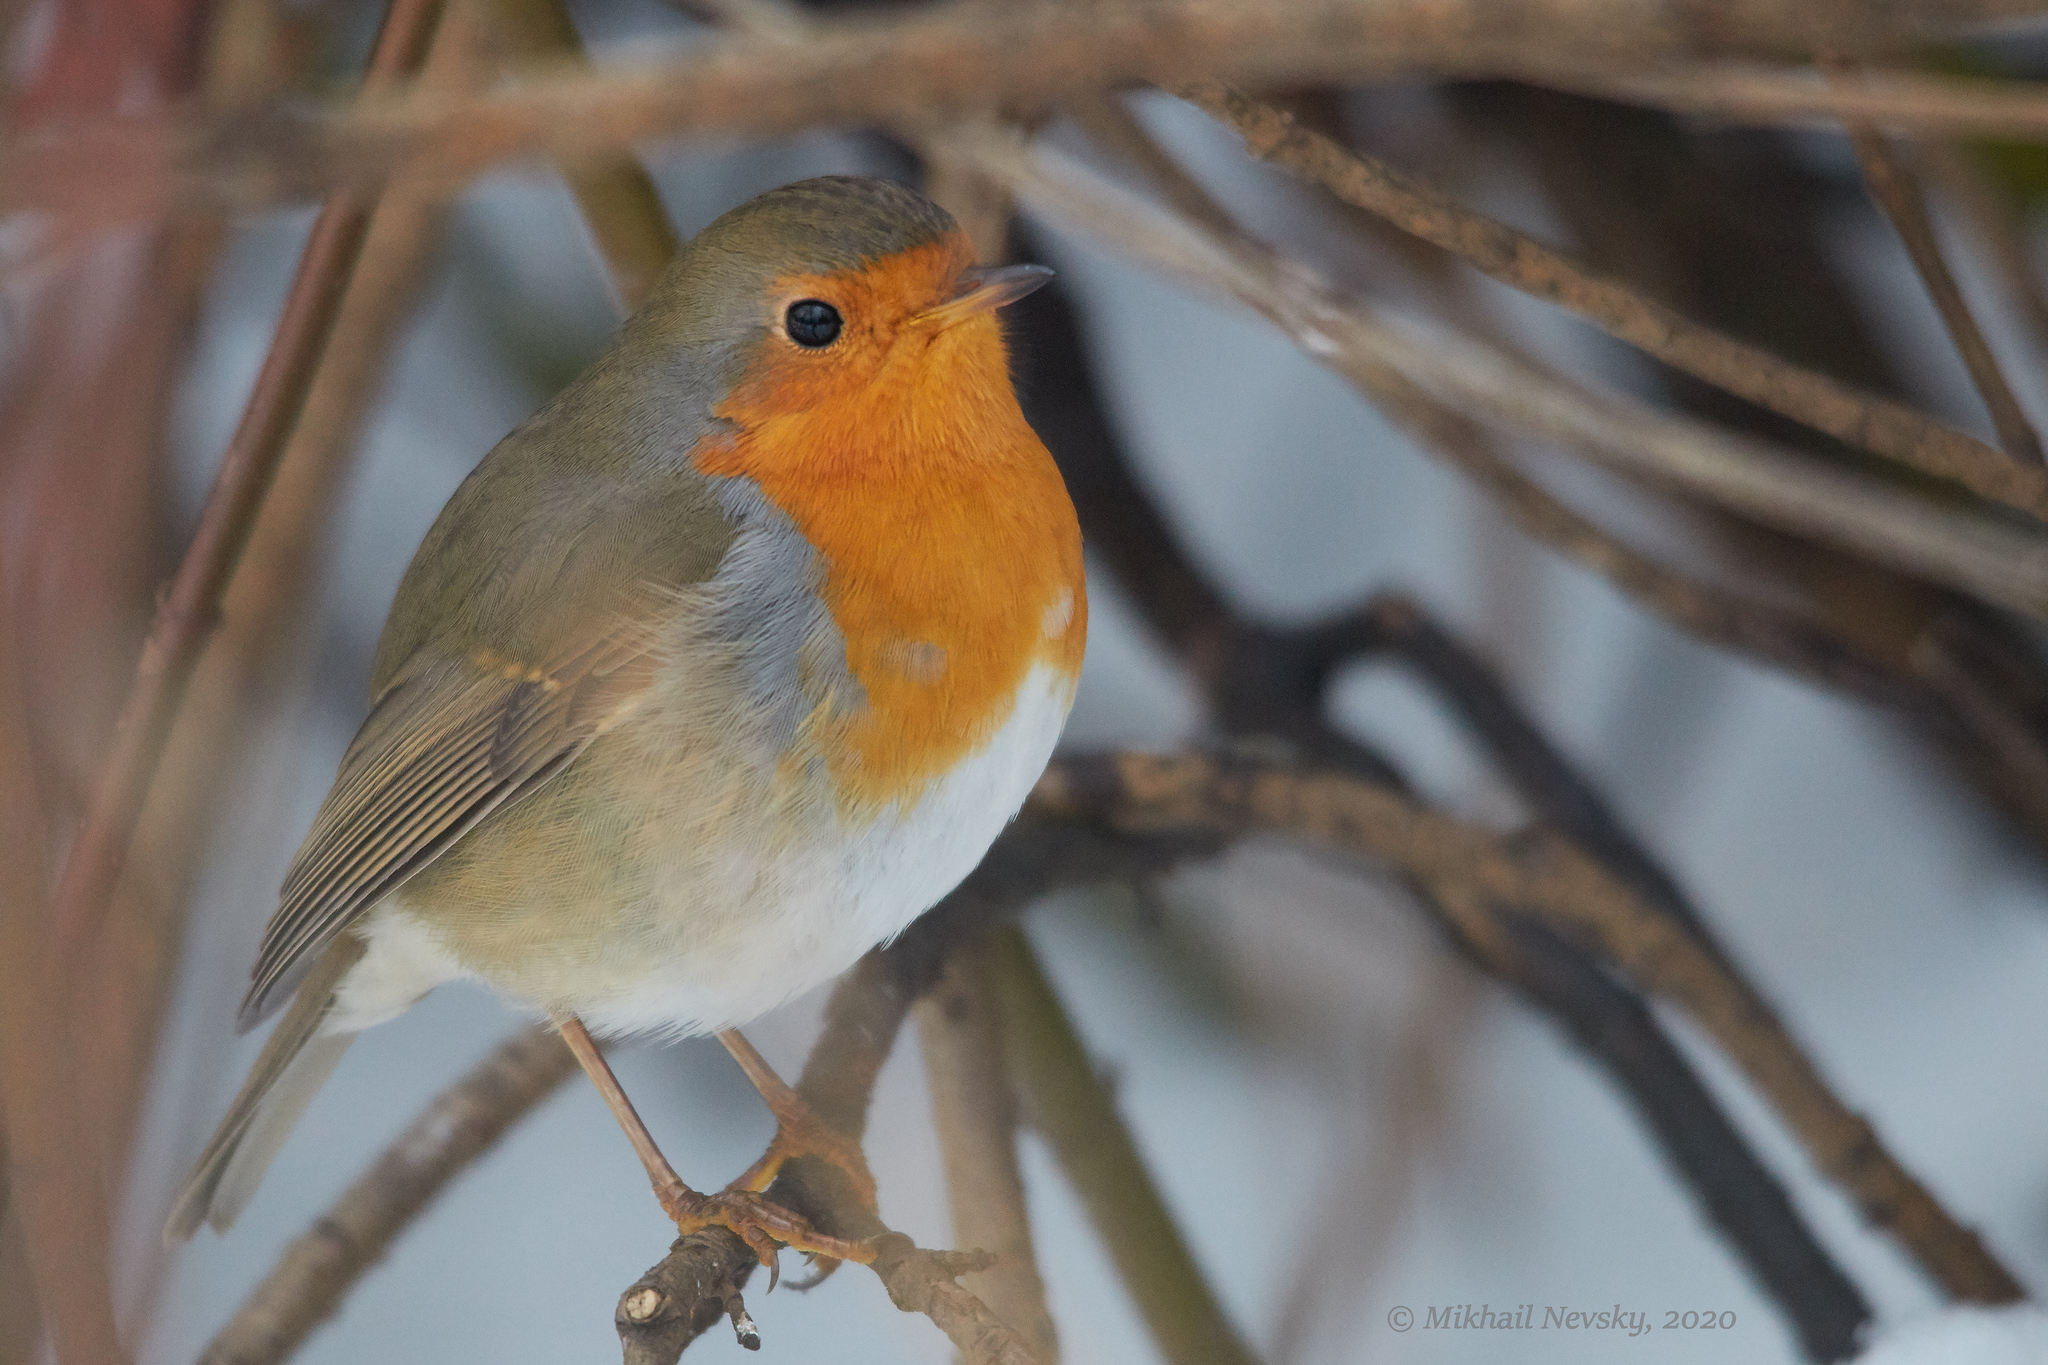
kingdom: Animalia
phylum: Chordata
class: Aves
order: Passeriformes
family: Muscicapidae
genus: Erithacus
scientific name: Erithacus rubecula
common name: European robin
